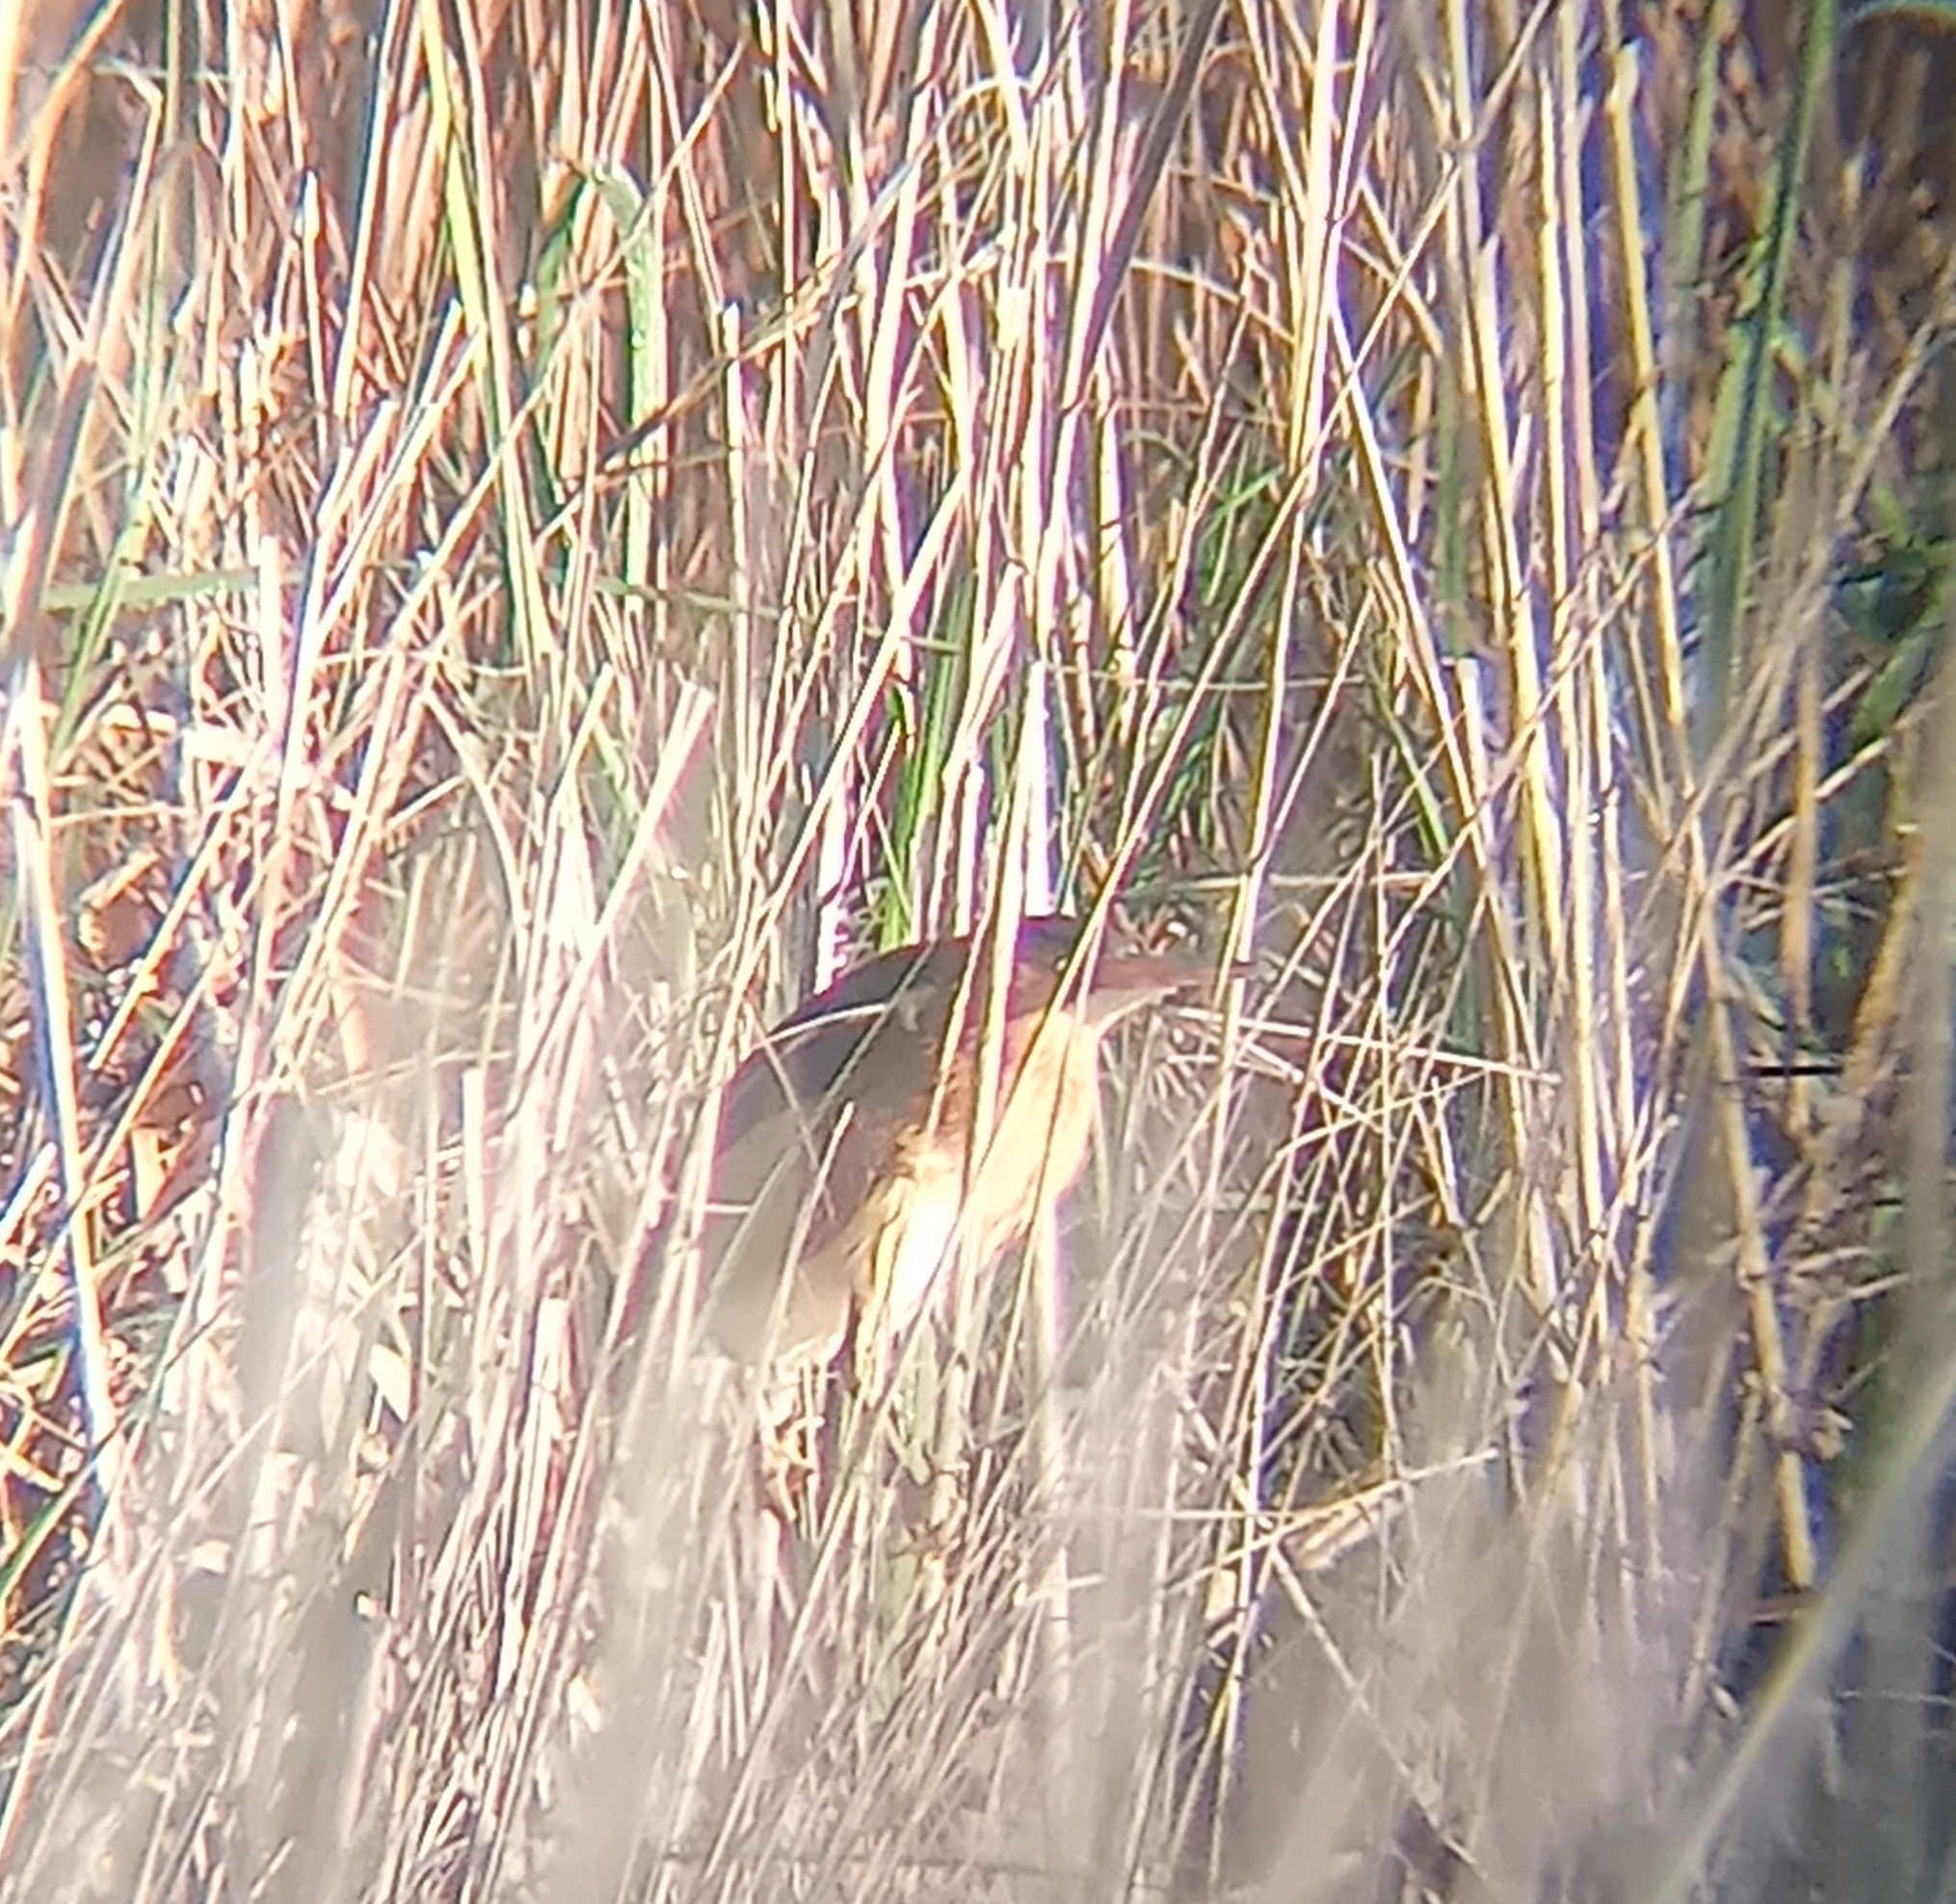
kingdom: Animalia
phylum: Chordata
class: Aves
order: Pelecaniformes
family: Ardeidae
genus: Ixobrychus
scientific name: Ixobrychus exilis
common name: Least bittern
